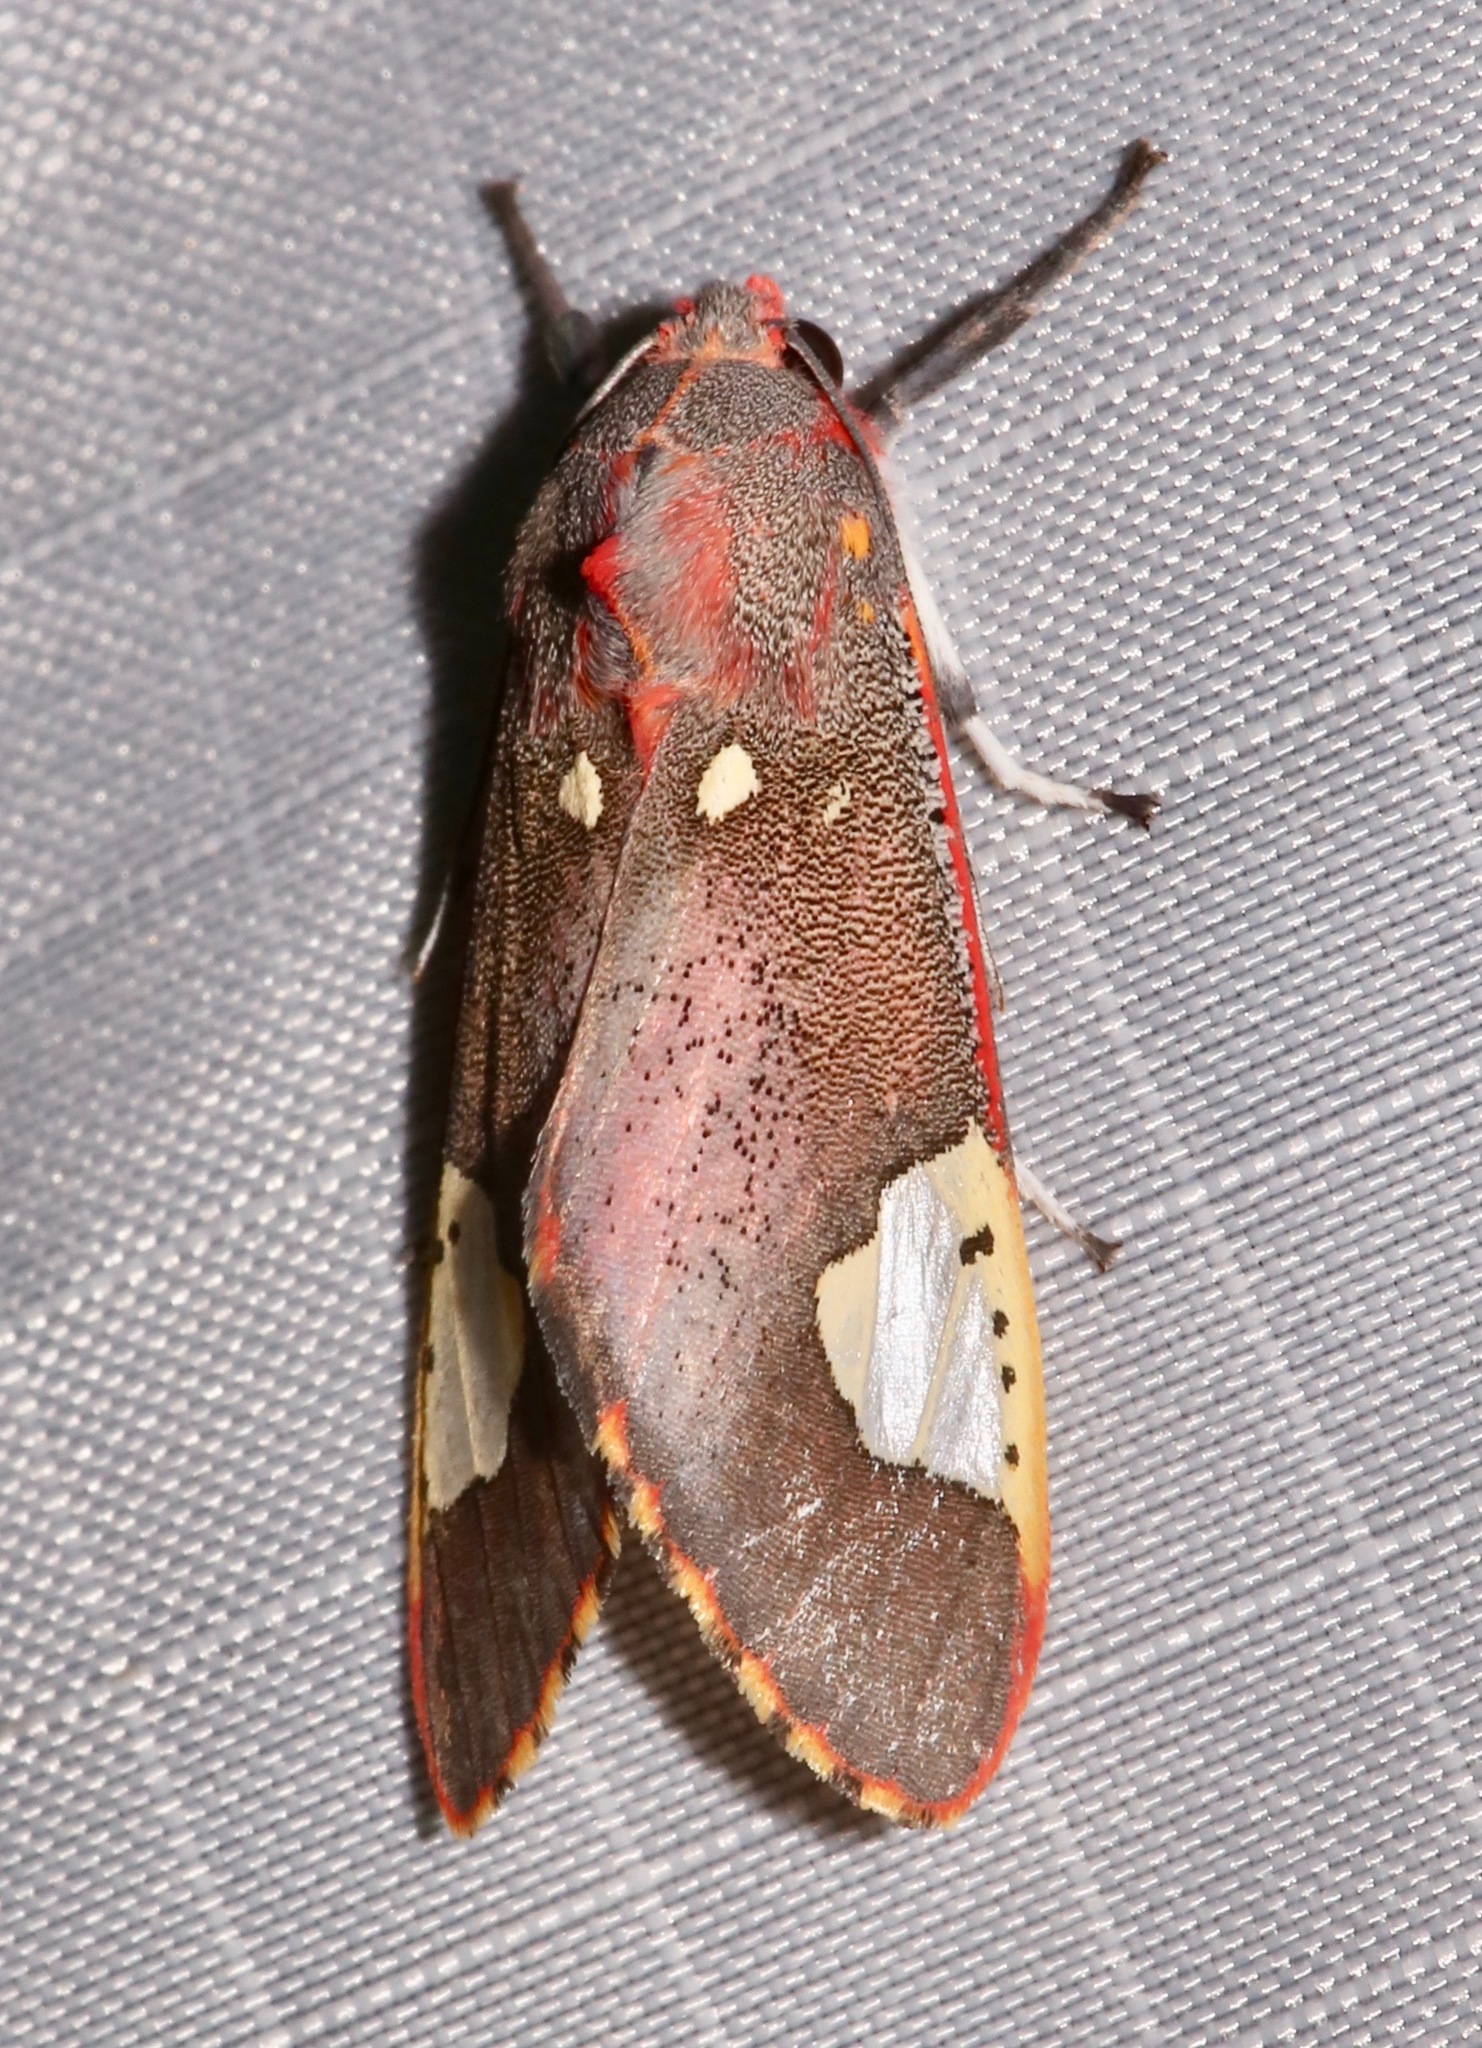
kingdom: Animalia
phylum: Arthropoda
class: Insecta
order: Lepidoptera
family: Erebidae
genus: Bertholdia
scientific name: Bertholdia trigona
